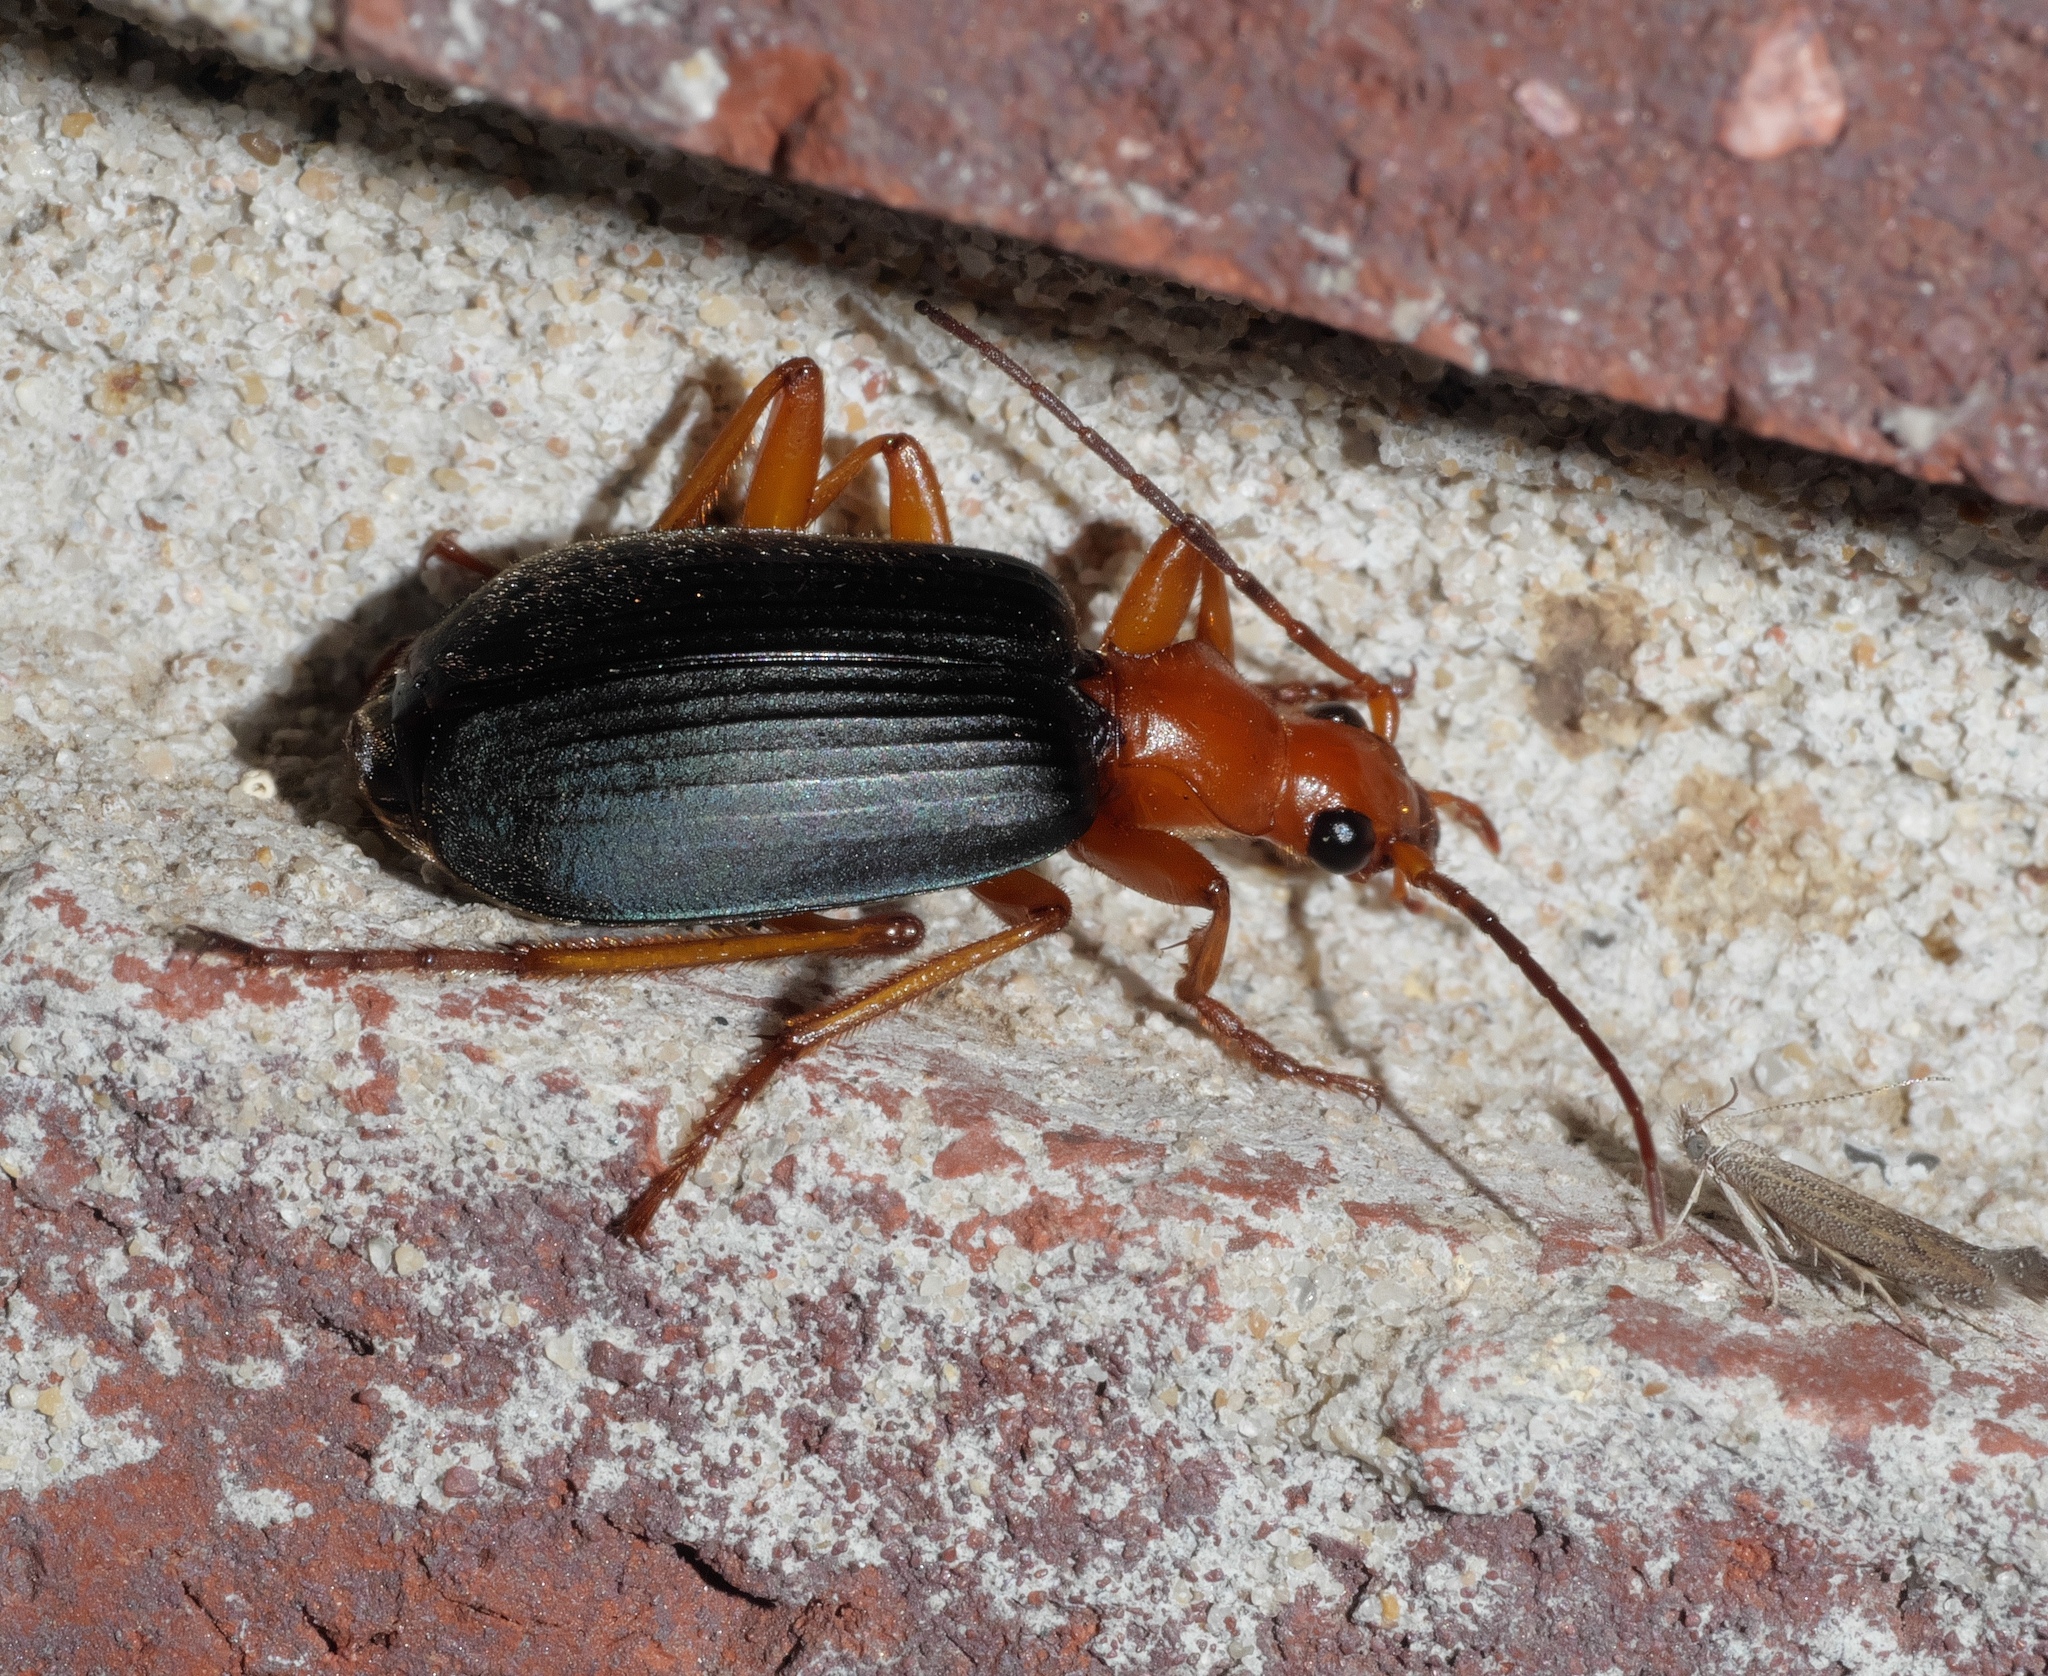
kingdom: Animalia
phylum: Arthropoda
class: Insecta
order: Coleoptera
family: Carabidae
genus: Brachinus
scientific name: Brachinus tenuicollis
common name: Narrow-necked little bombardier beetle
